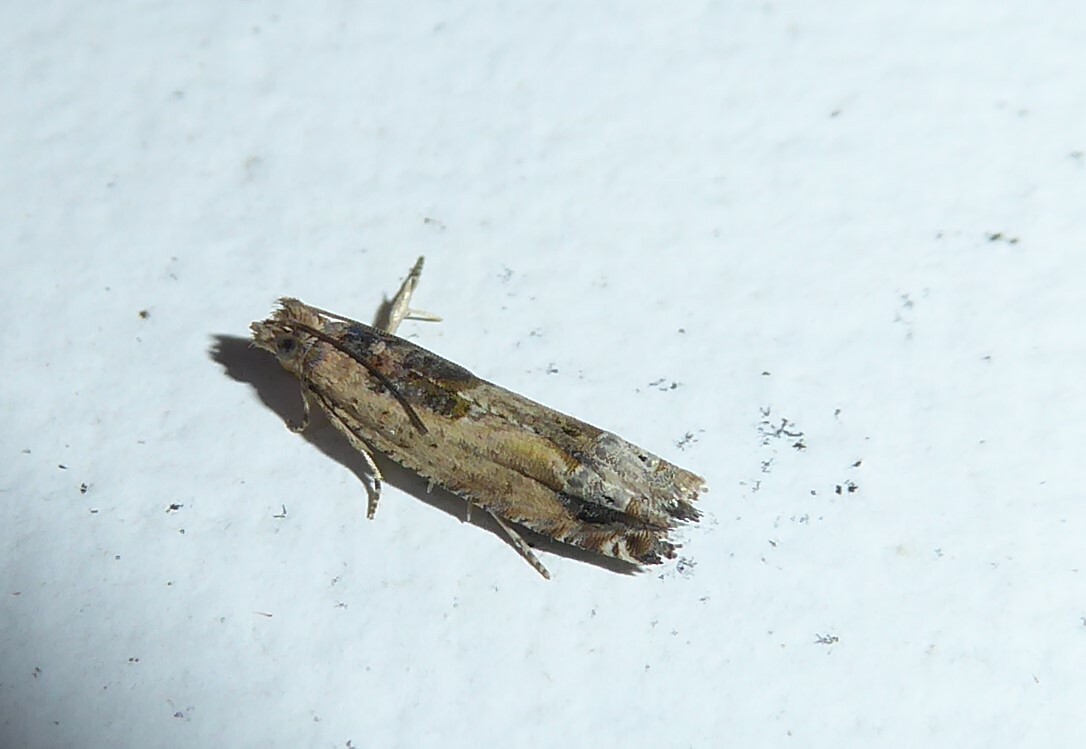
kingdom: Animalia
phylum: Arthropoda
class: Insecta
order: Lepidoptera
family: Tortricidae
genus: Crocidosema
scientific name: Crocidosema plebejana
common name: Southern bell
